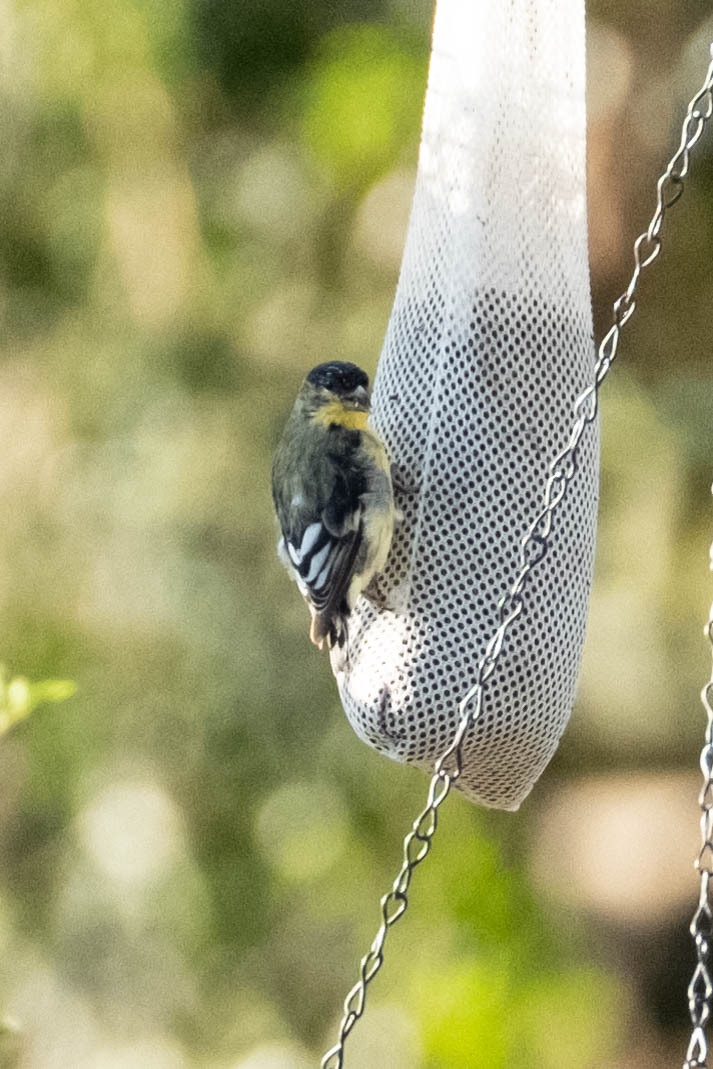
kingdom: Animalia
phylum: Chordata
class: Aves
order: Passeriformes
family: Fringillidae
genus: Spinus
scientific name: Spinus psaltria
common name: Lesser goldfinch
